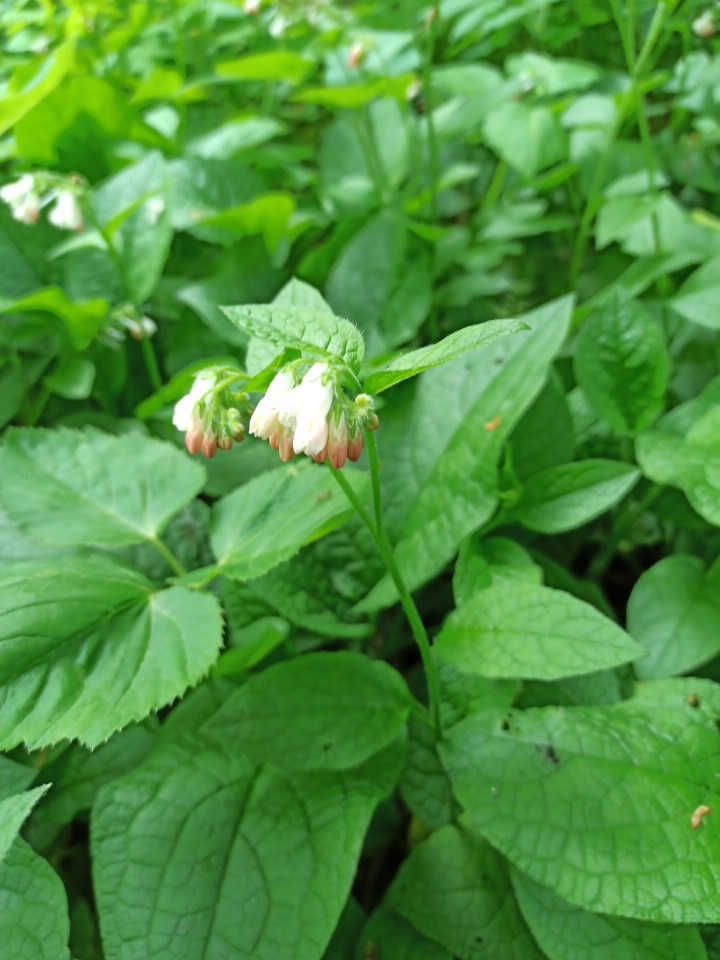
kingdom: Plantae
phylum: Tracheophyta
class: Magnoliopsida
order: Boraginales
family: Boraginaceae
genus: Symphytum
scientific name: Symphytum tuberosum
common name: Tuberous comfrey
